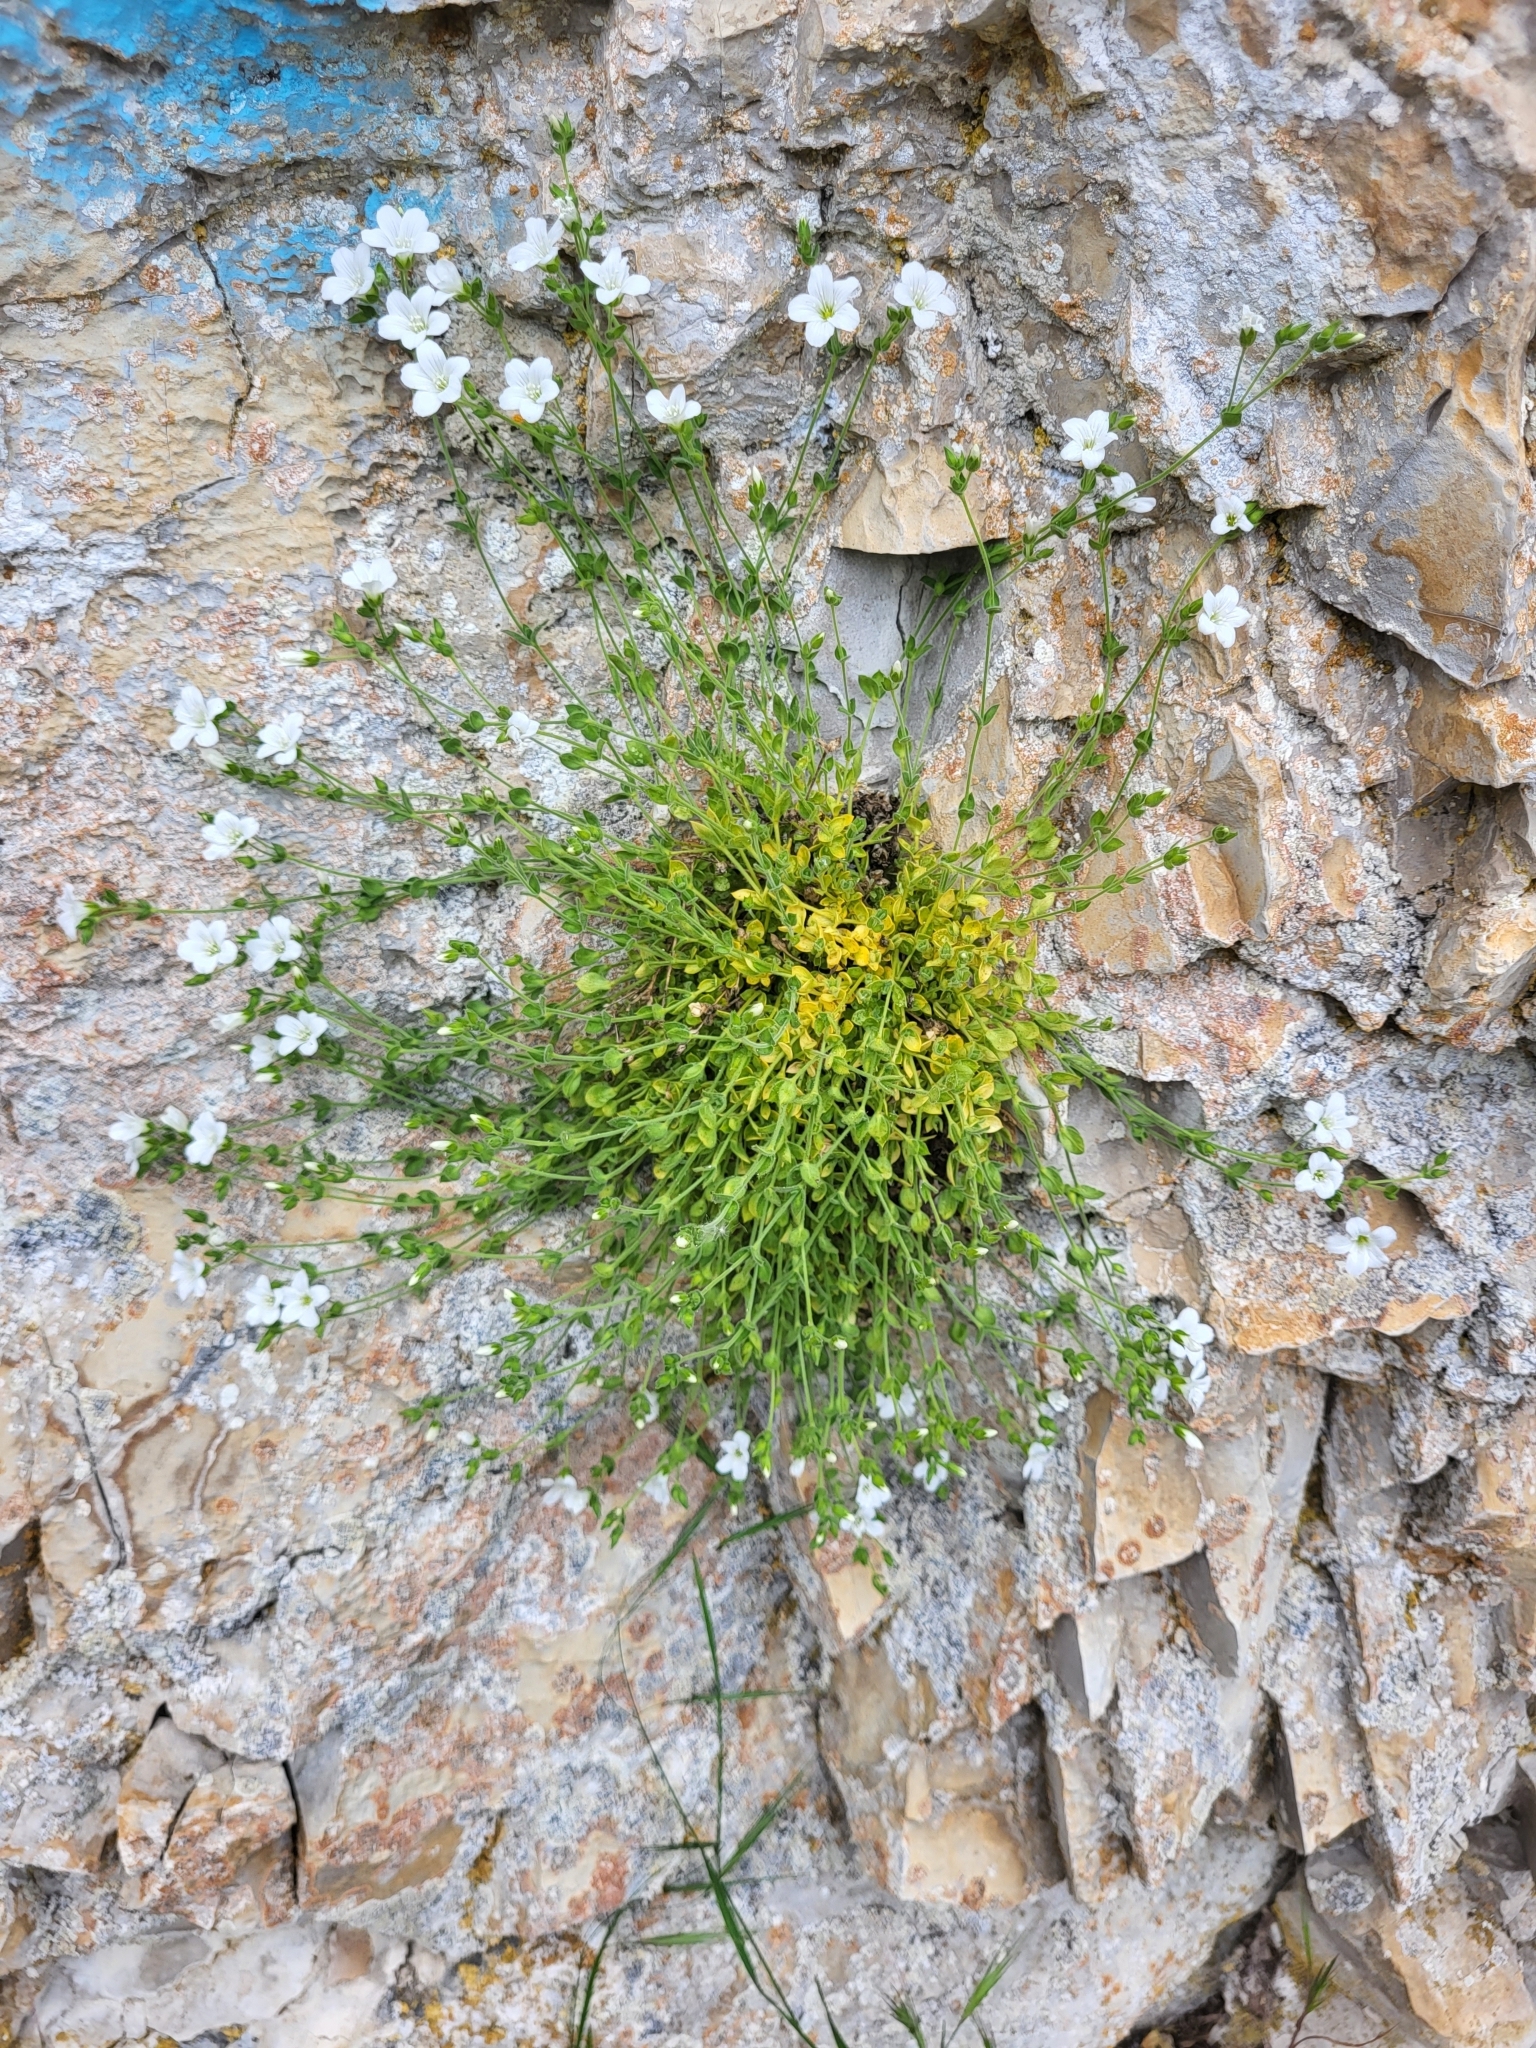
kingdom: Plantae
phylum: Tracheophyta
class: Magnoliopsida
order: Caryophyllales
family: Caryophyllaceae
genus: Arenaria
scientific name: Arenaria filicaulis
